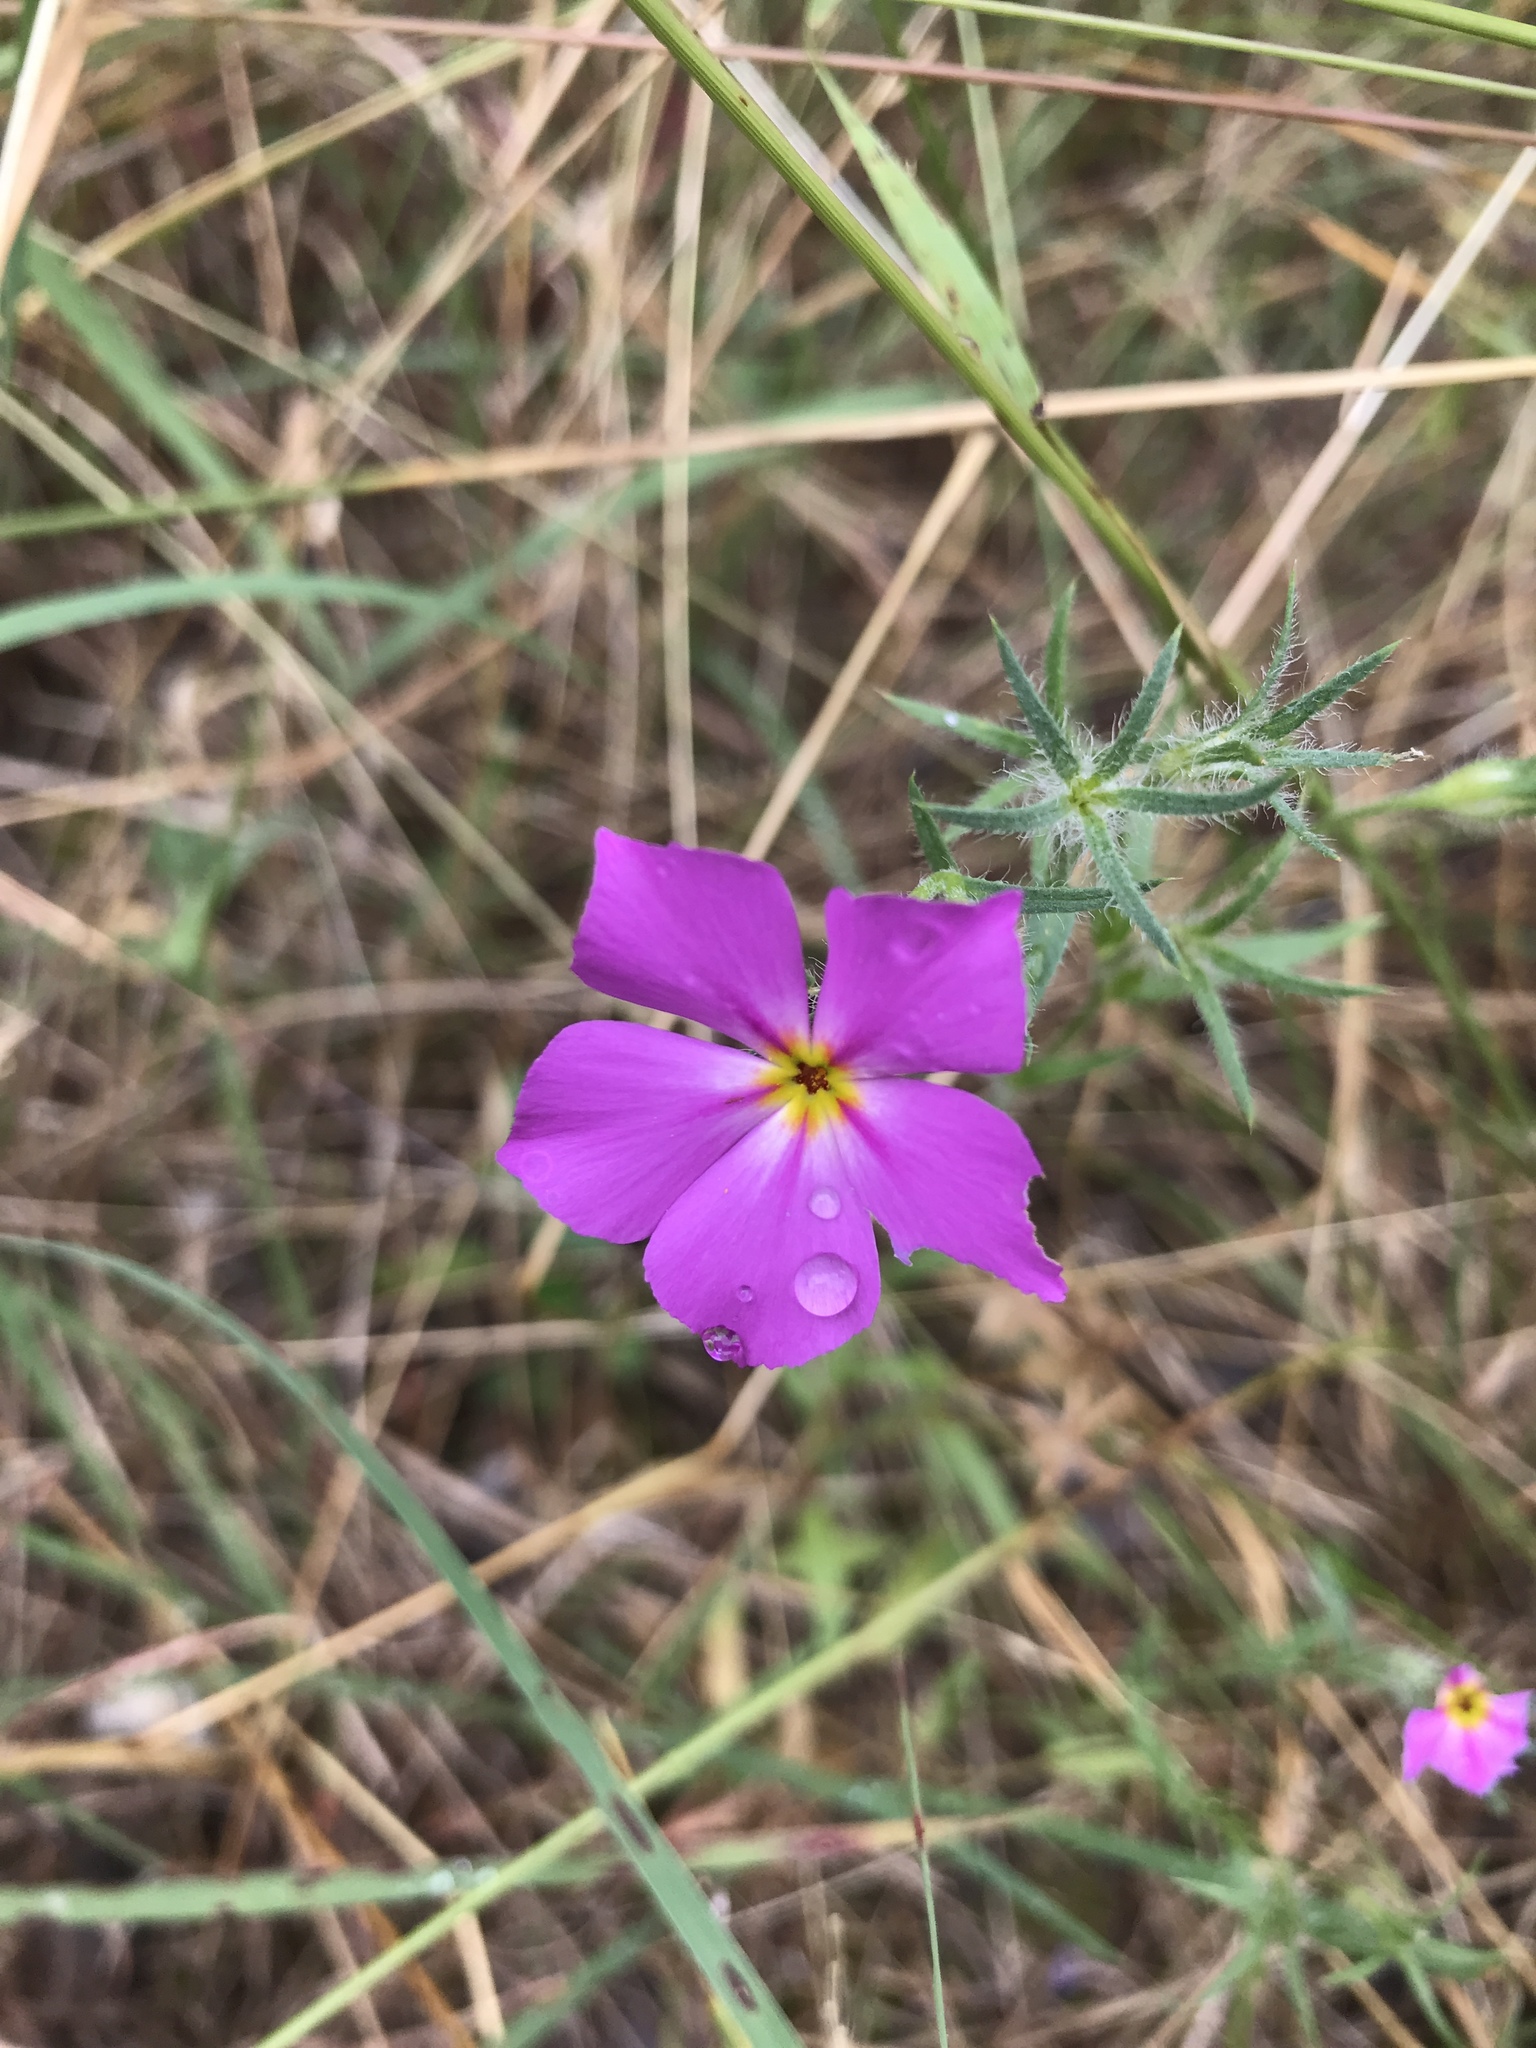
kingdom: Plantae
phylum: Tracheophyta
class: Magnoliopsida
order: Ericales
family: Polemoniaceae
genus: Phlox
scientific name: Phlox roemeriana
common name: Roemer's phlox
